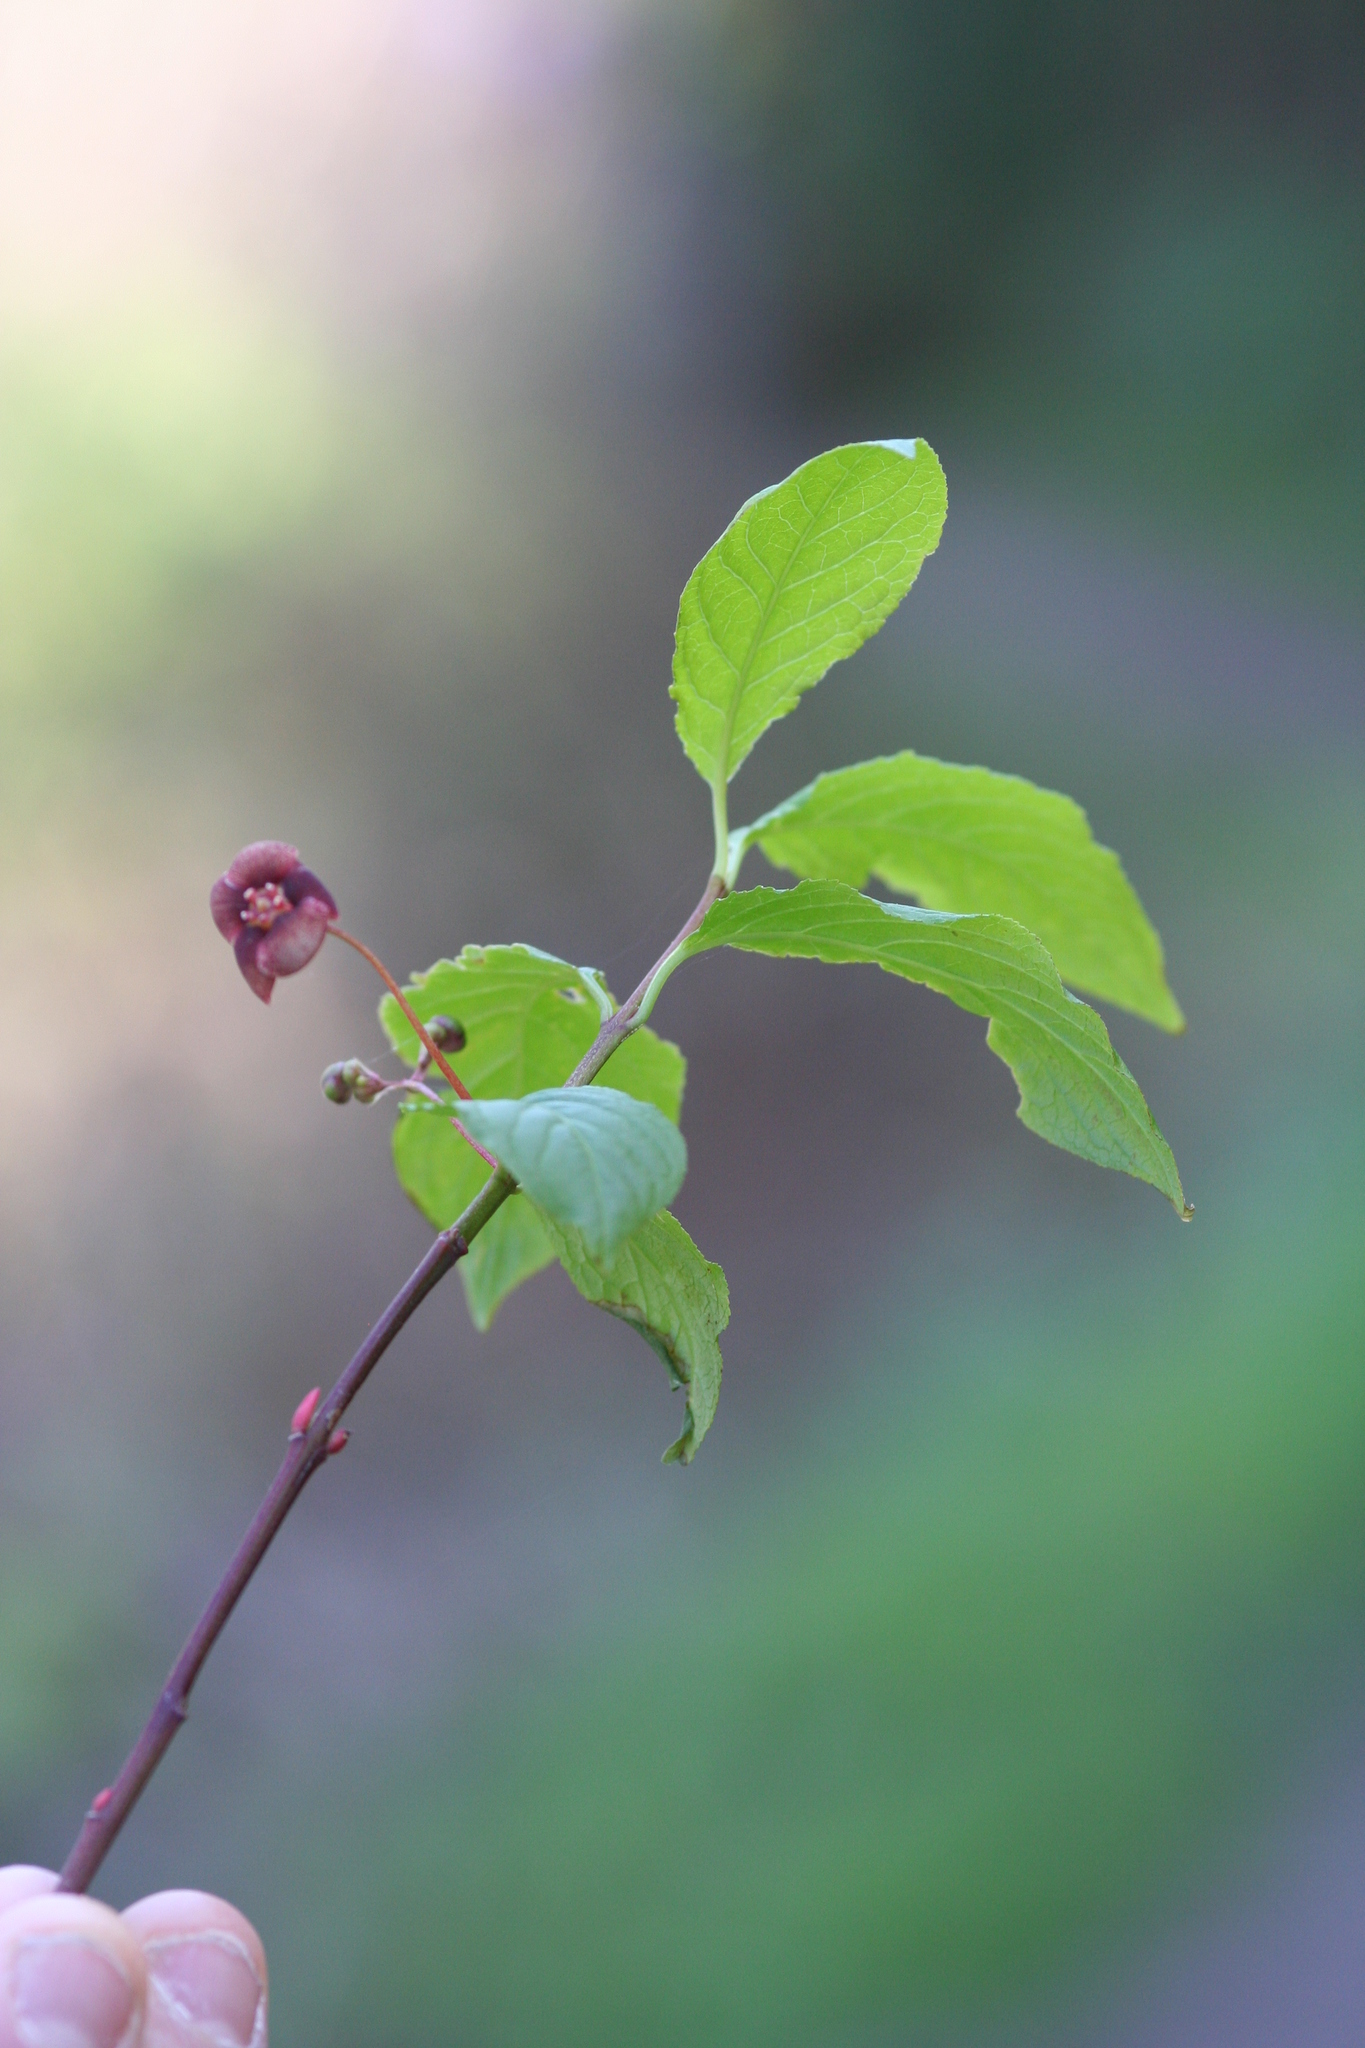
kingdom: Plantae
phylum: Tracheophyta
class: Magnoliopsida
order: Celastrales
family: Celastraceae
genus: Euonymus
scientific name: Euonymus occidentalis
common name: Western burningbush
